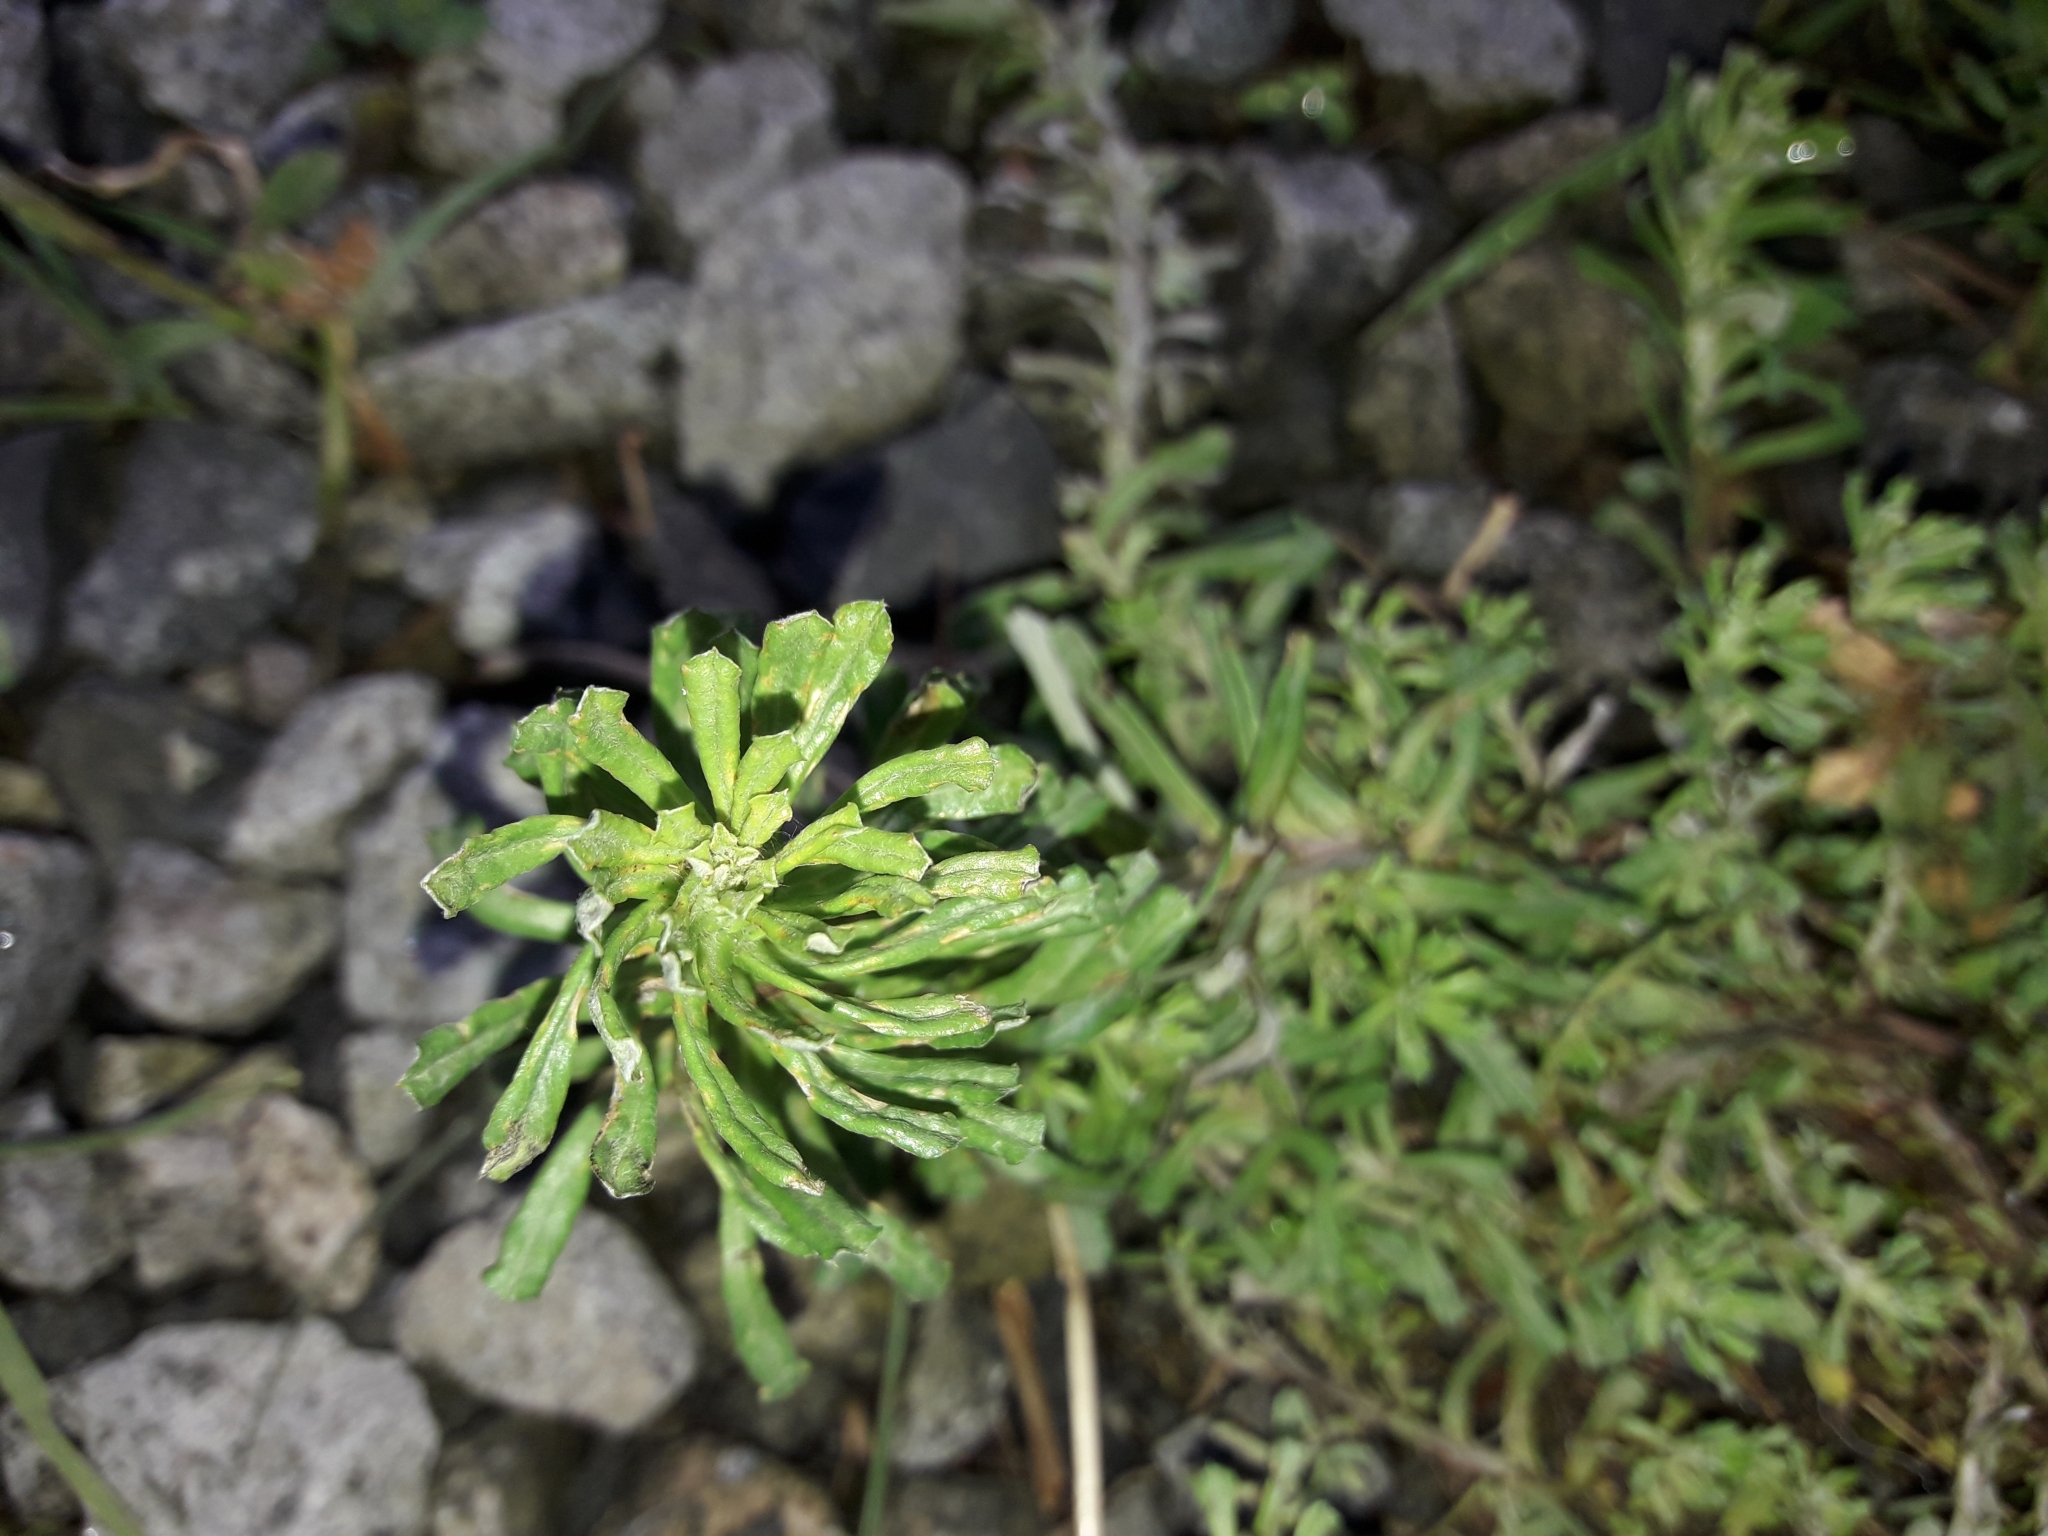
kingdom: Plantae
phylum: Tracheophyta
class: Magnoliopsida
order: Asterales
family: Asteraceae
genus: Facelis
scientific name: Facelis retusa
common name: Annual trampweed
